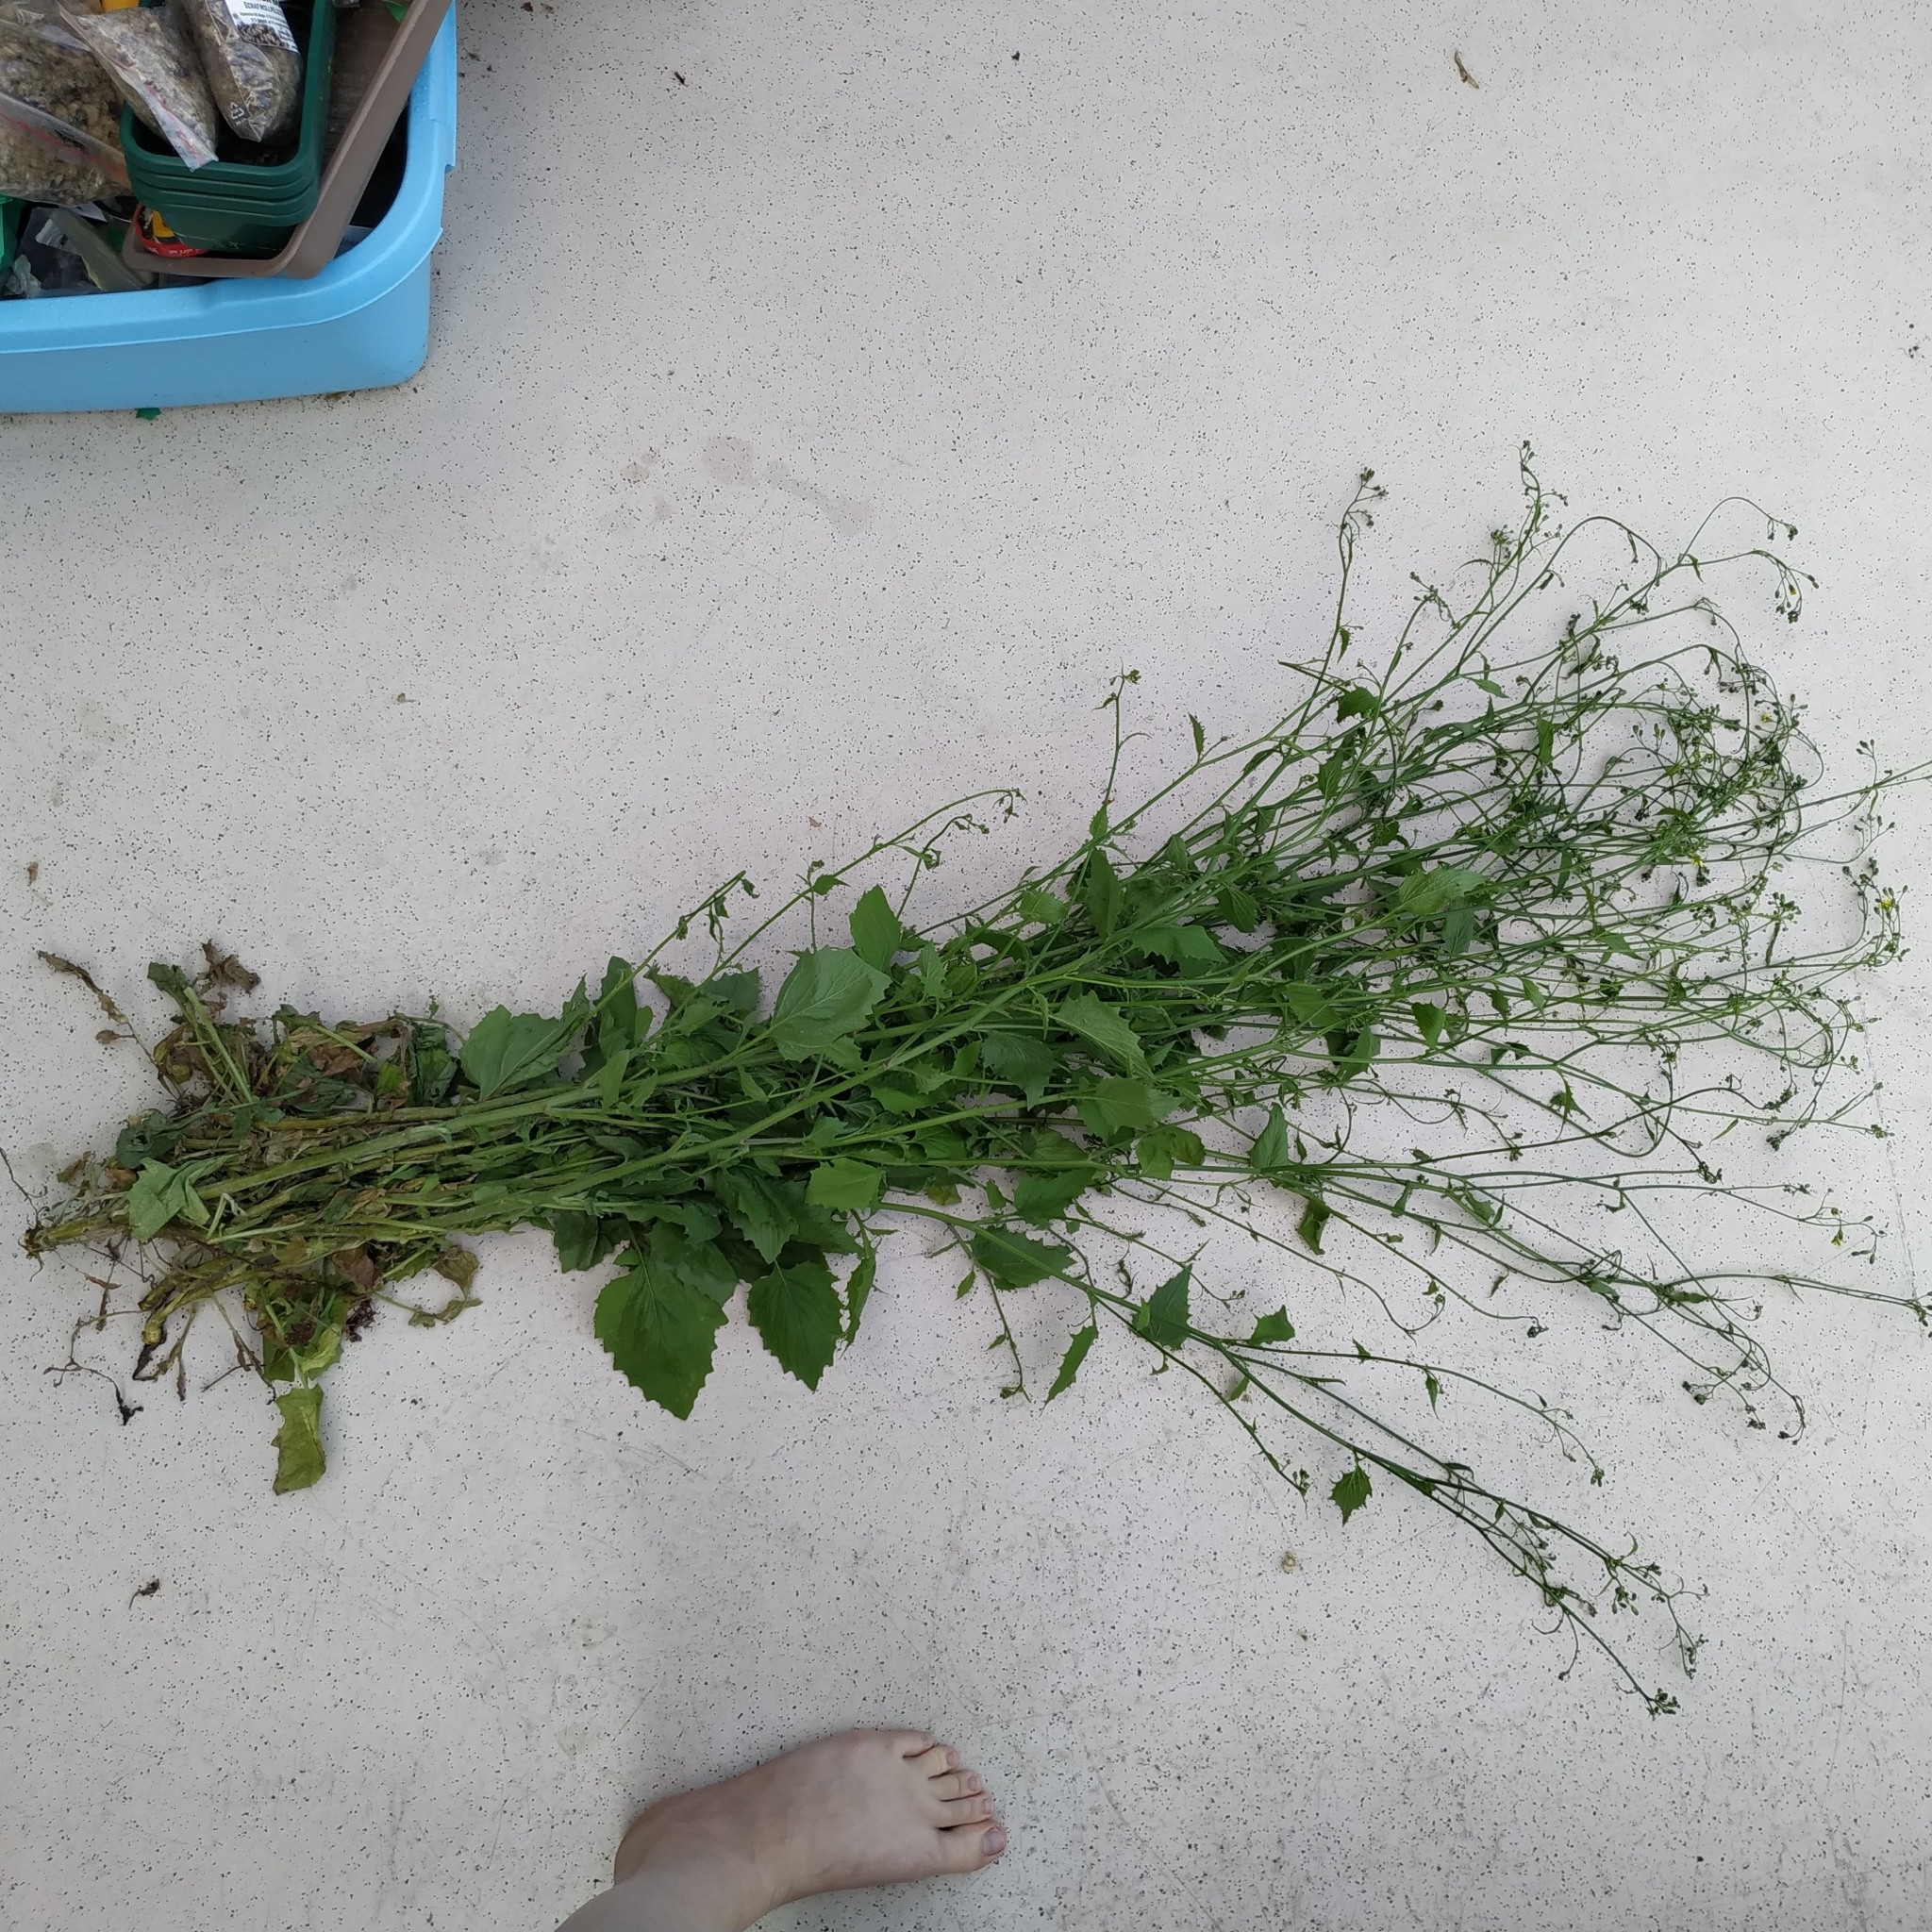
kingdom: Plantae
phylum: Tracheophyta
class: Magnoliopsida
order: Asterales
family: Asteraceae
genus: Lapsana
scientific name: Lapsana communis
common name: Nipplewort
